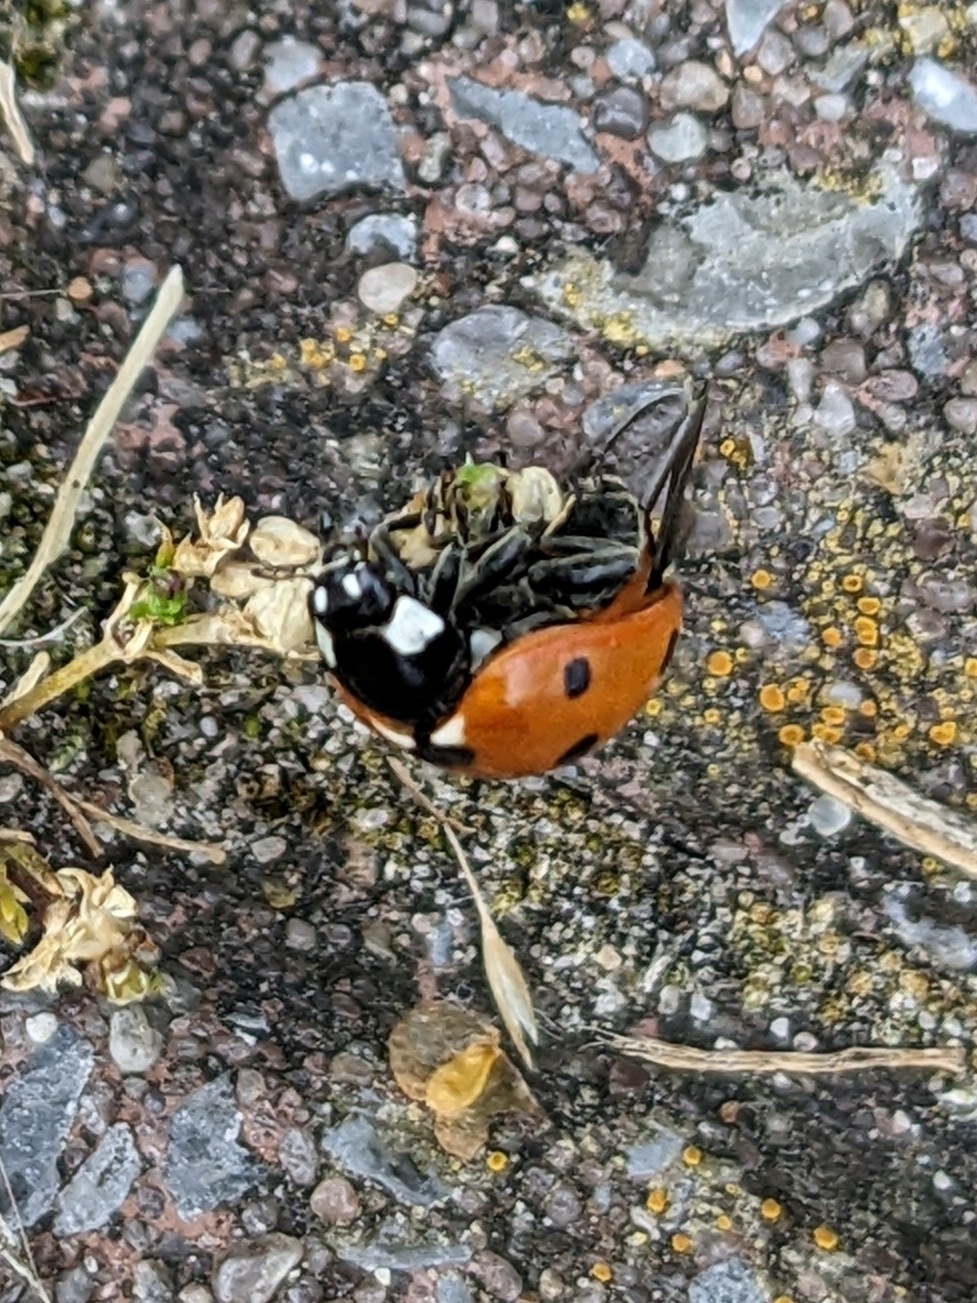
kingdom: Animalia
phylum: Arthropoda
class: Insecta
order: Coleoptera
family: Coccinellidae
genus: Coccinella
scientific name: Coccinella septempunctata
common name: Sevenspotted lady beetle
